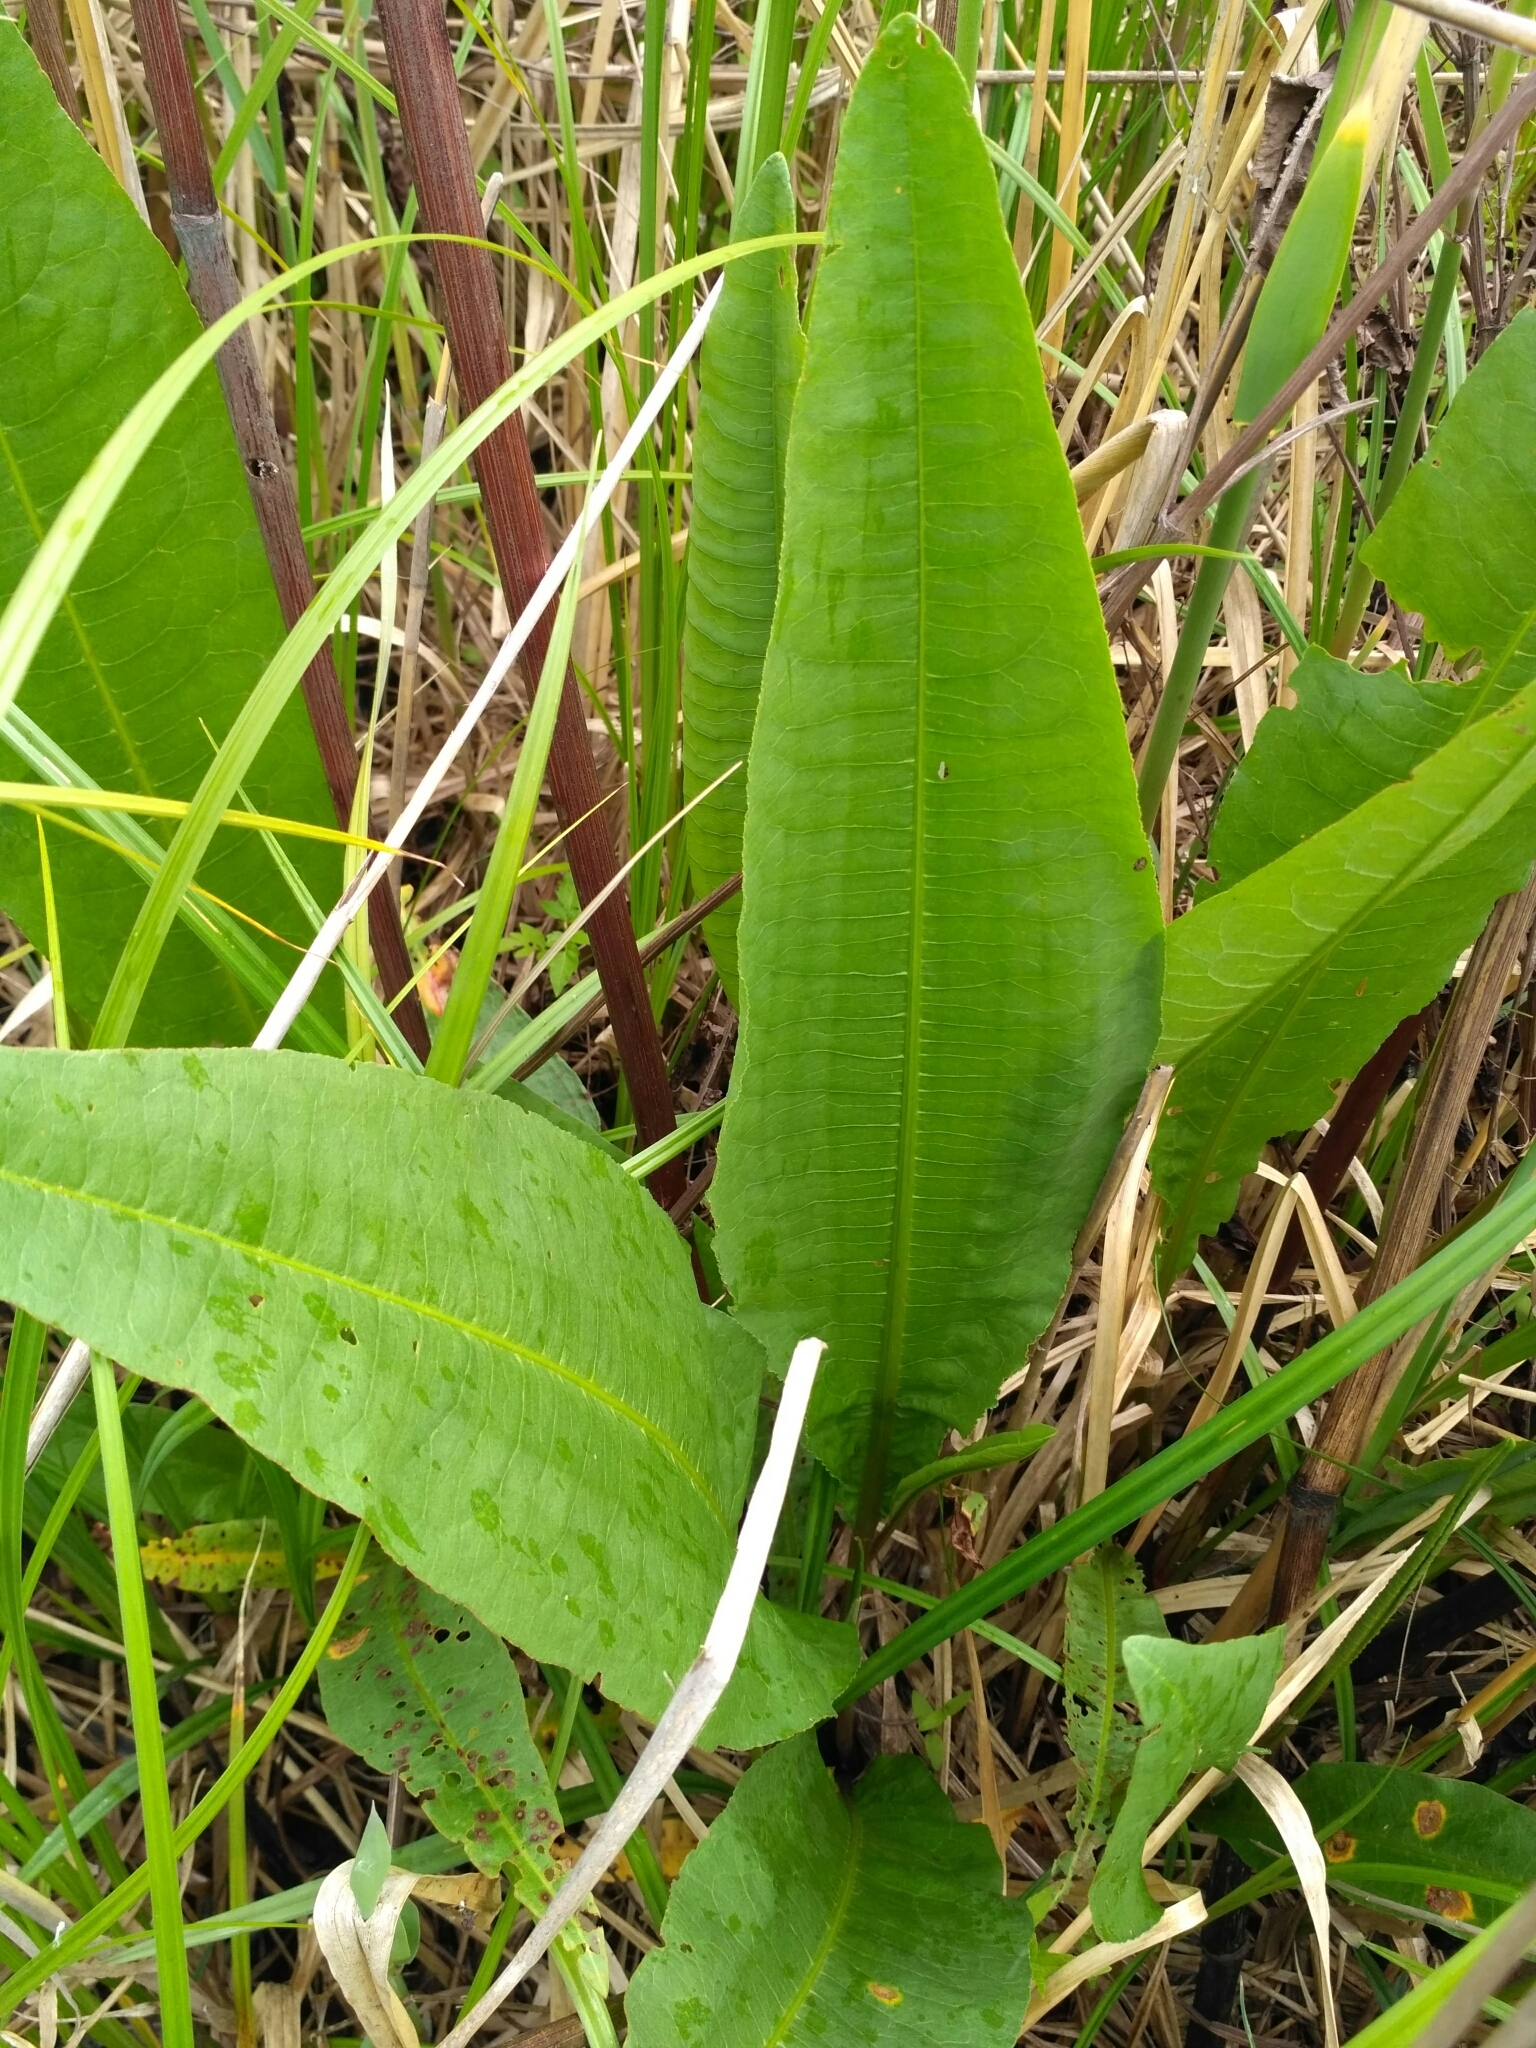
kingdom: Plantae
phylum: Tracheophyta
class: Magnoliopsida
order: Caryophyllales
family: Polygonaceae
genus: Rumex
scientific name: Rumex hydrolapathum
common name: Water dock
